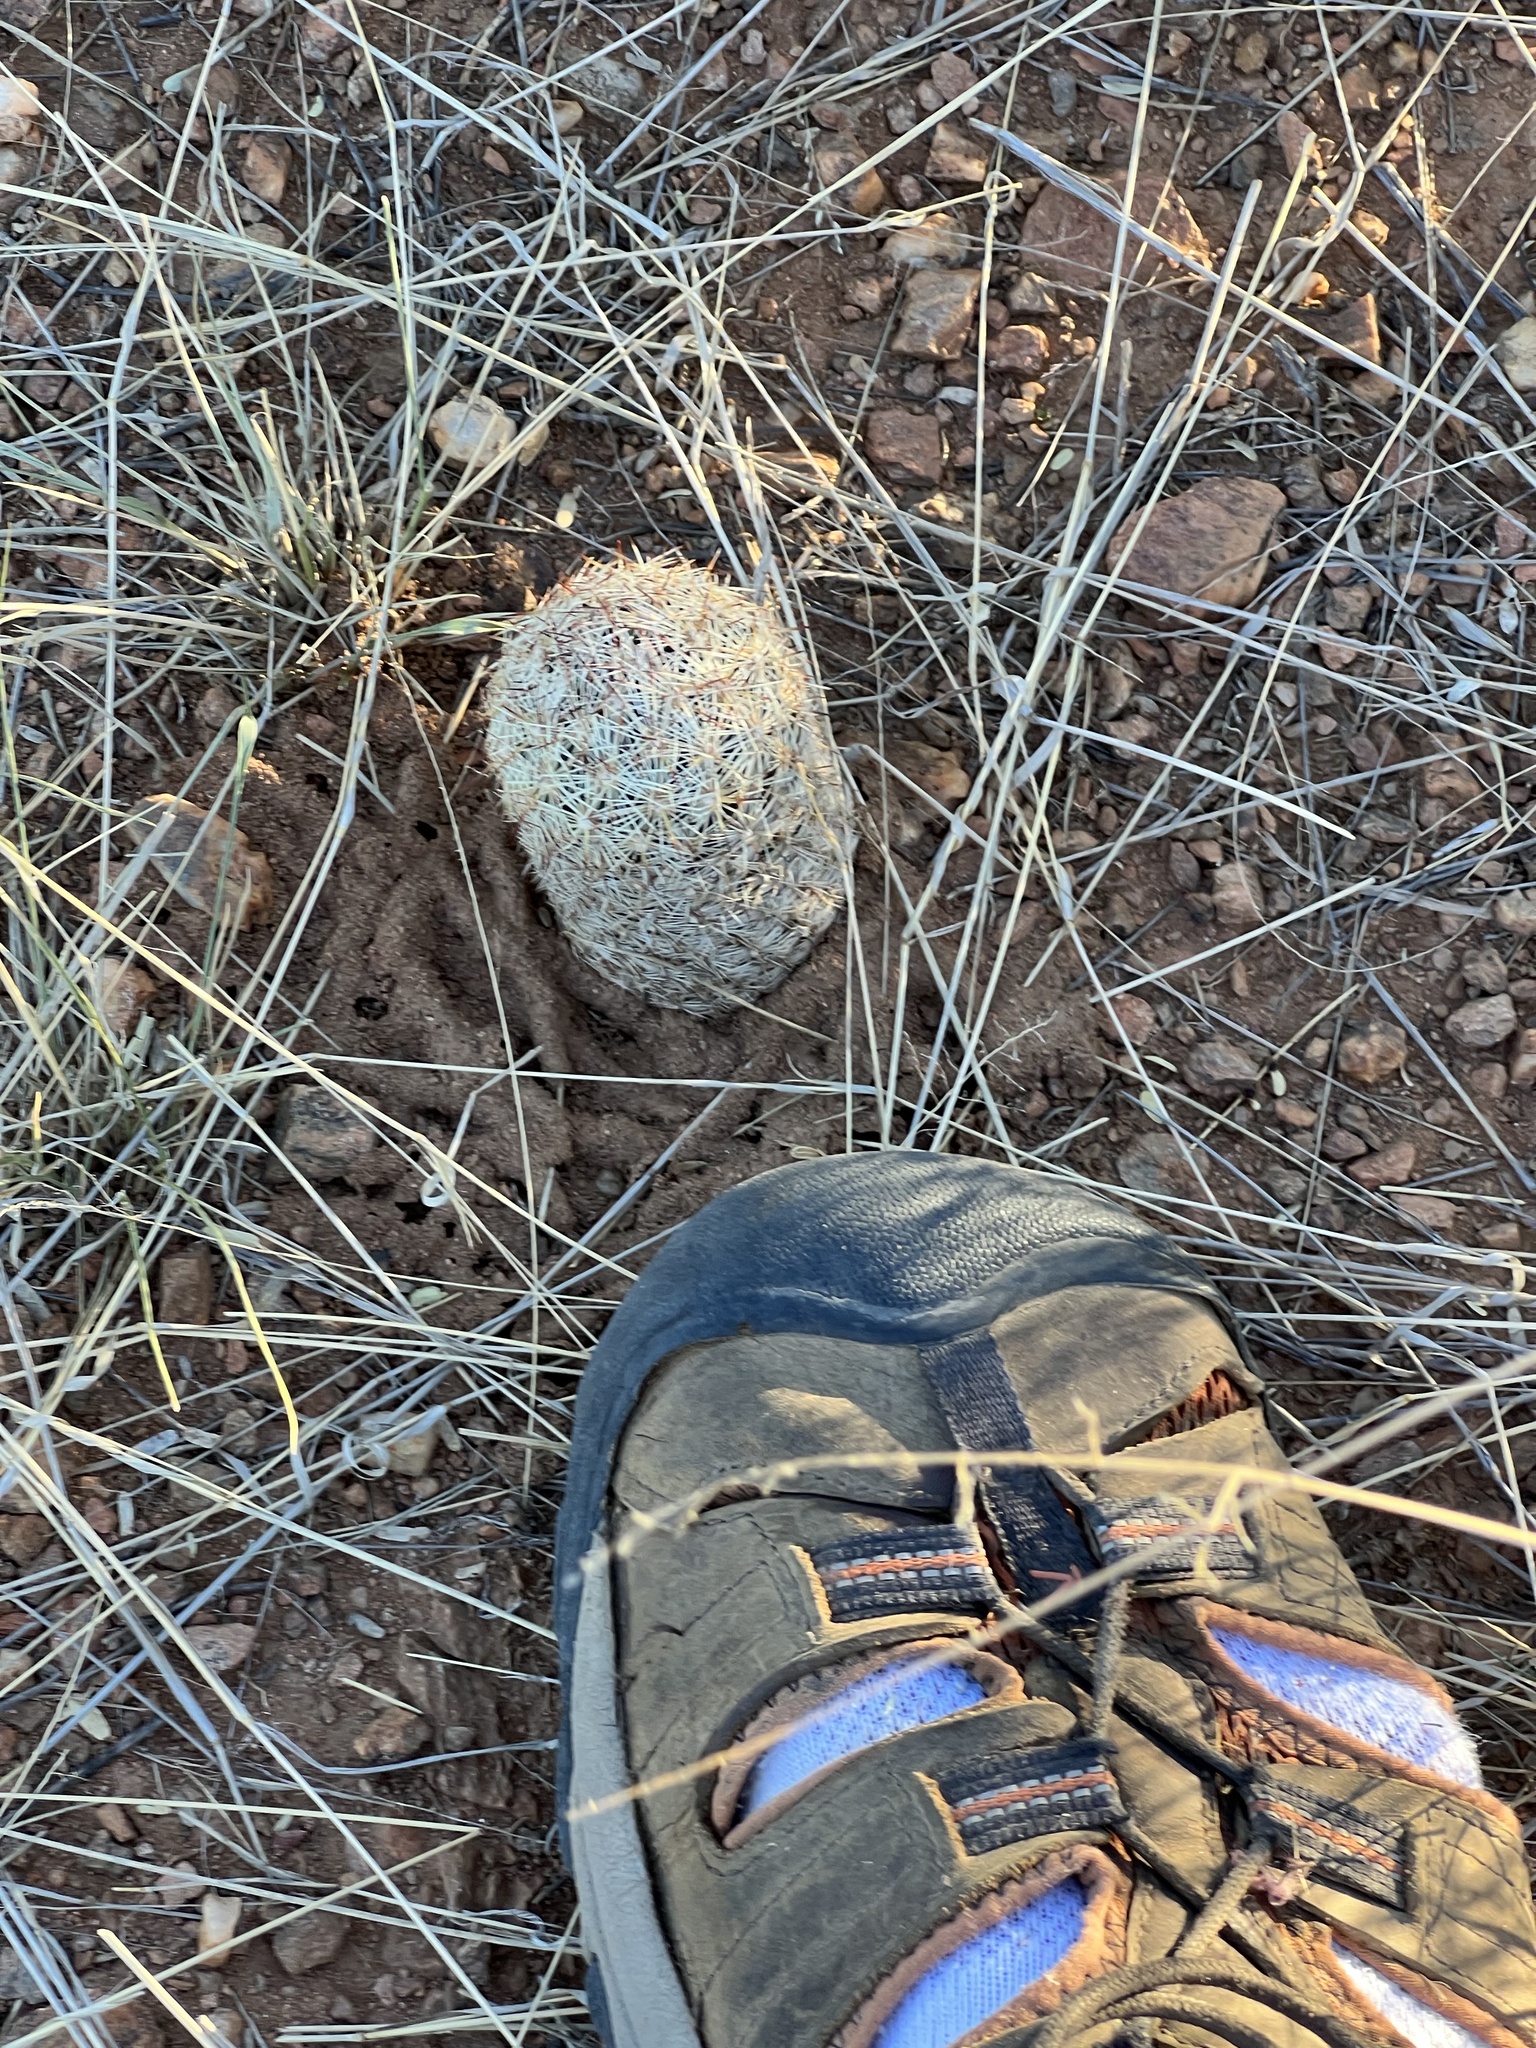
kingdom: Plantae
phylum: Tracheophyta
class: Magnoliopsida
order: Caryophyllales
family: Cactaceae
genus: Pelecyphora
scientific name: Pelecyphora vivipara
